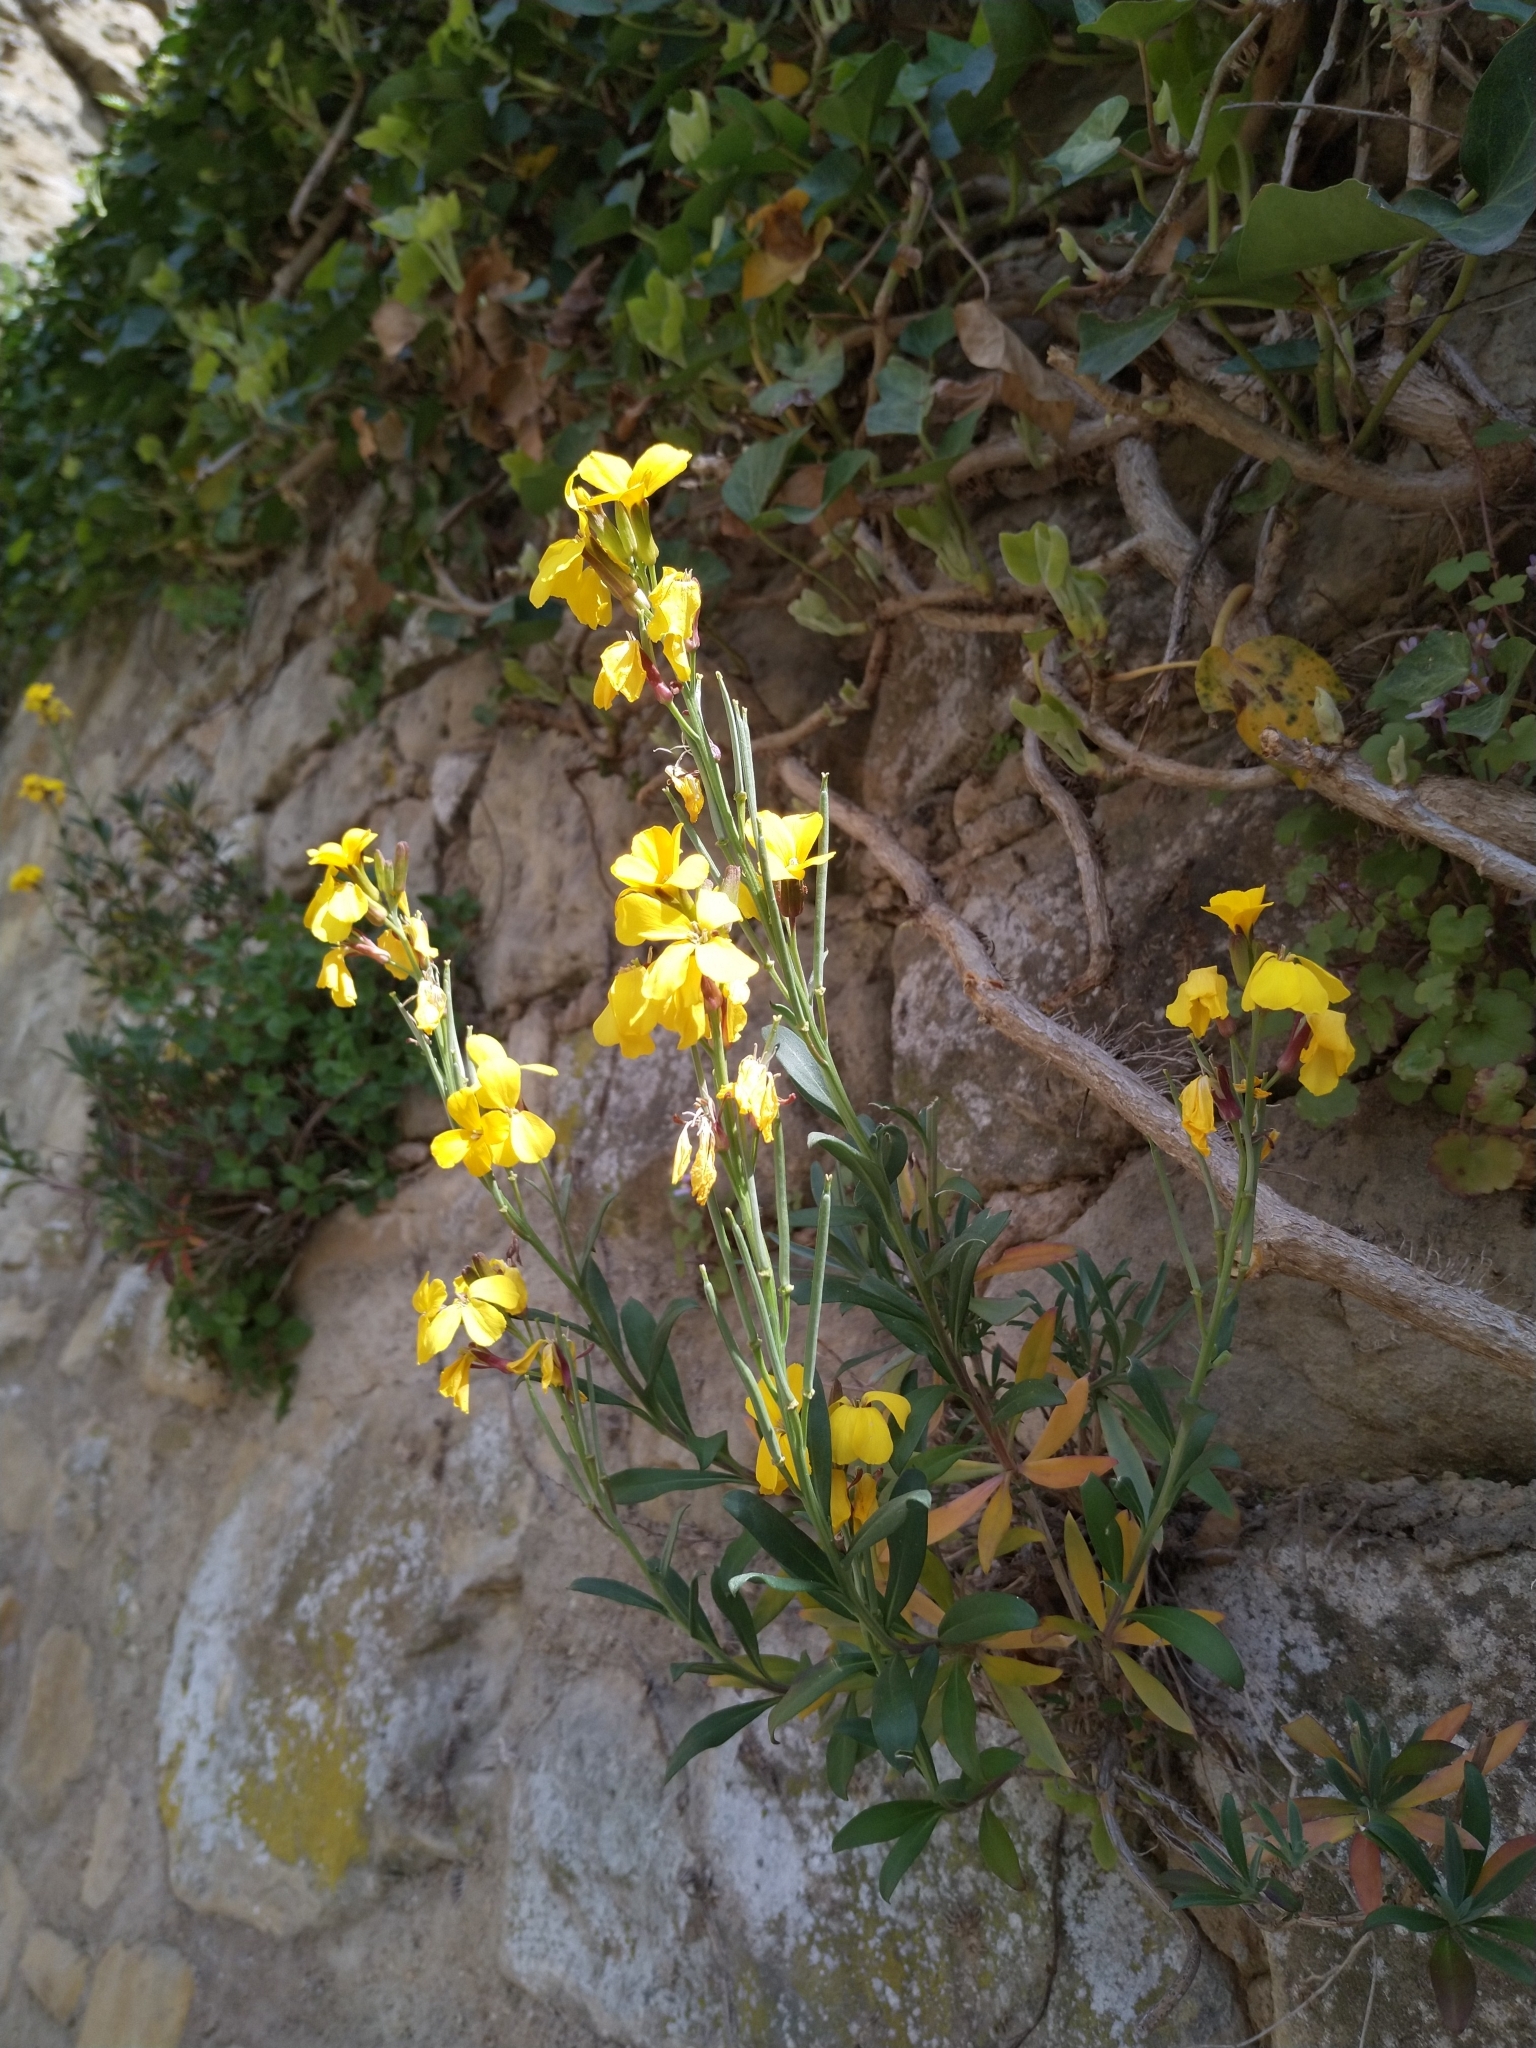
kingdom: Plantae
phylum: Tracheophyta
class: Magnoliopsida
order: Brassicales
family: Brassicaceae
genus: Erysimum
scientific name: Erysimum cheiri
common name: Wallflower
